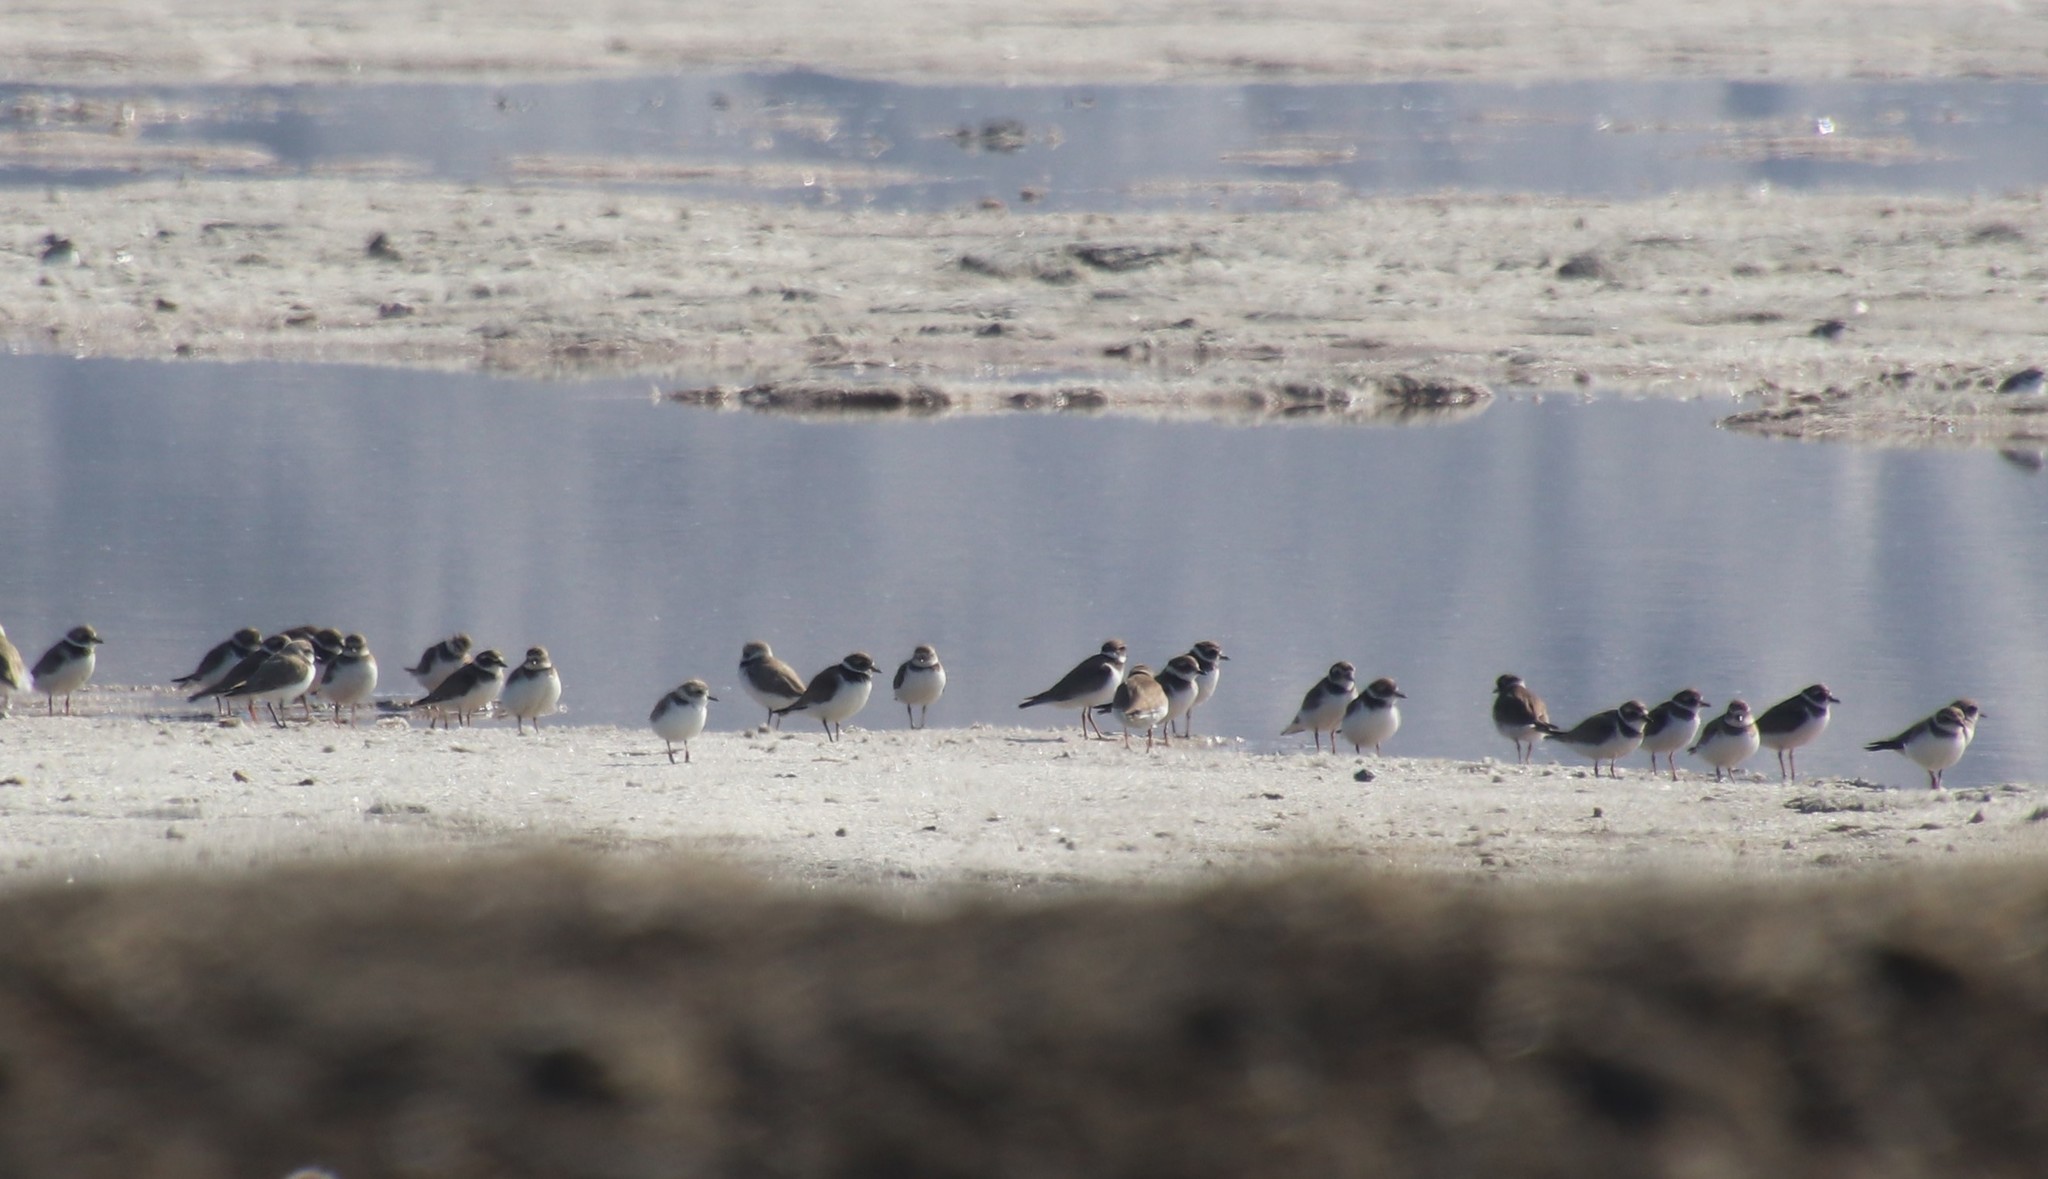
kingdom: Animalia
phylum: Chordata
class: Aves
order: Charadriiformes
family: Charadriidae
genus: Charadrius
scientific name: Charadrius semipalmatus
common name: Semipalmated plover
